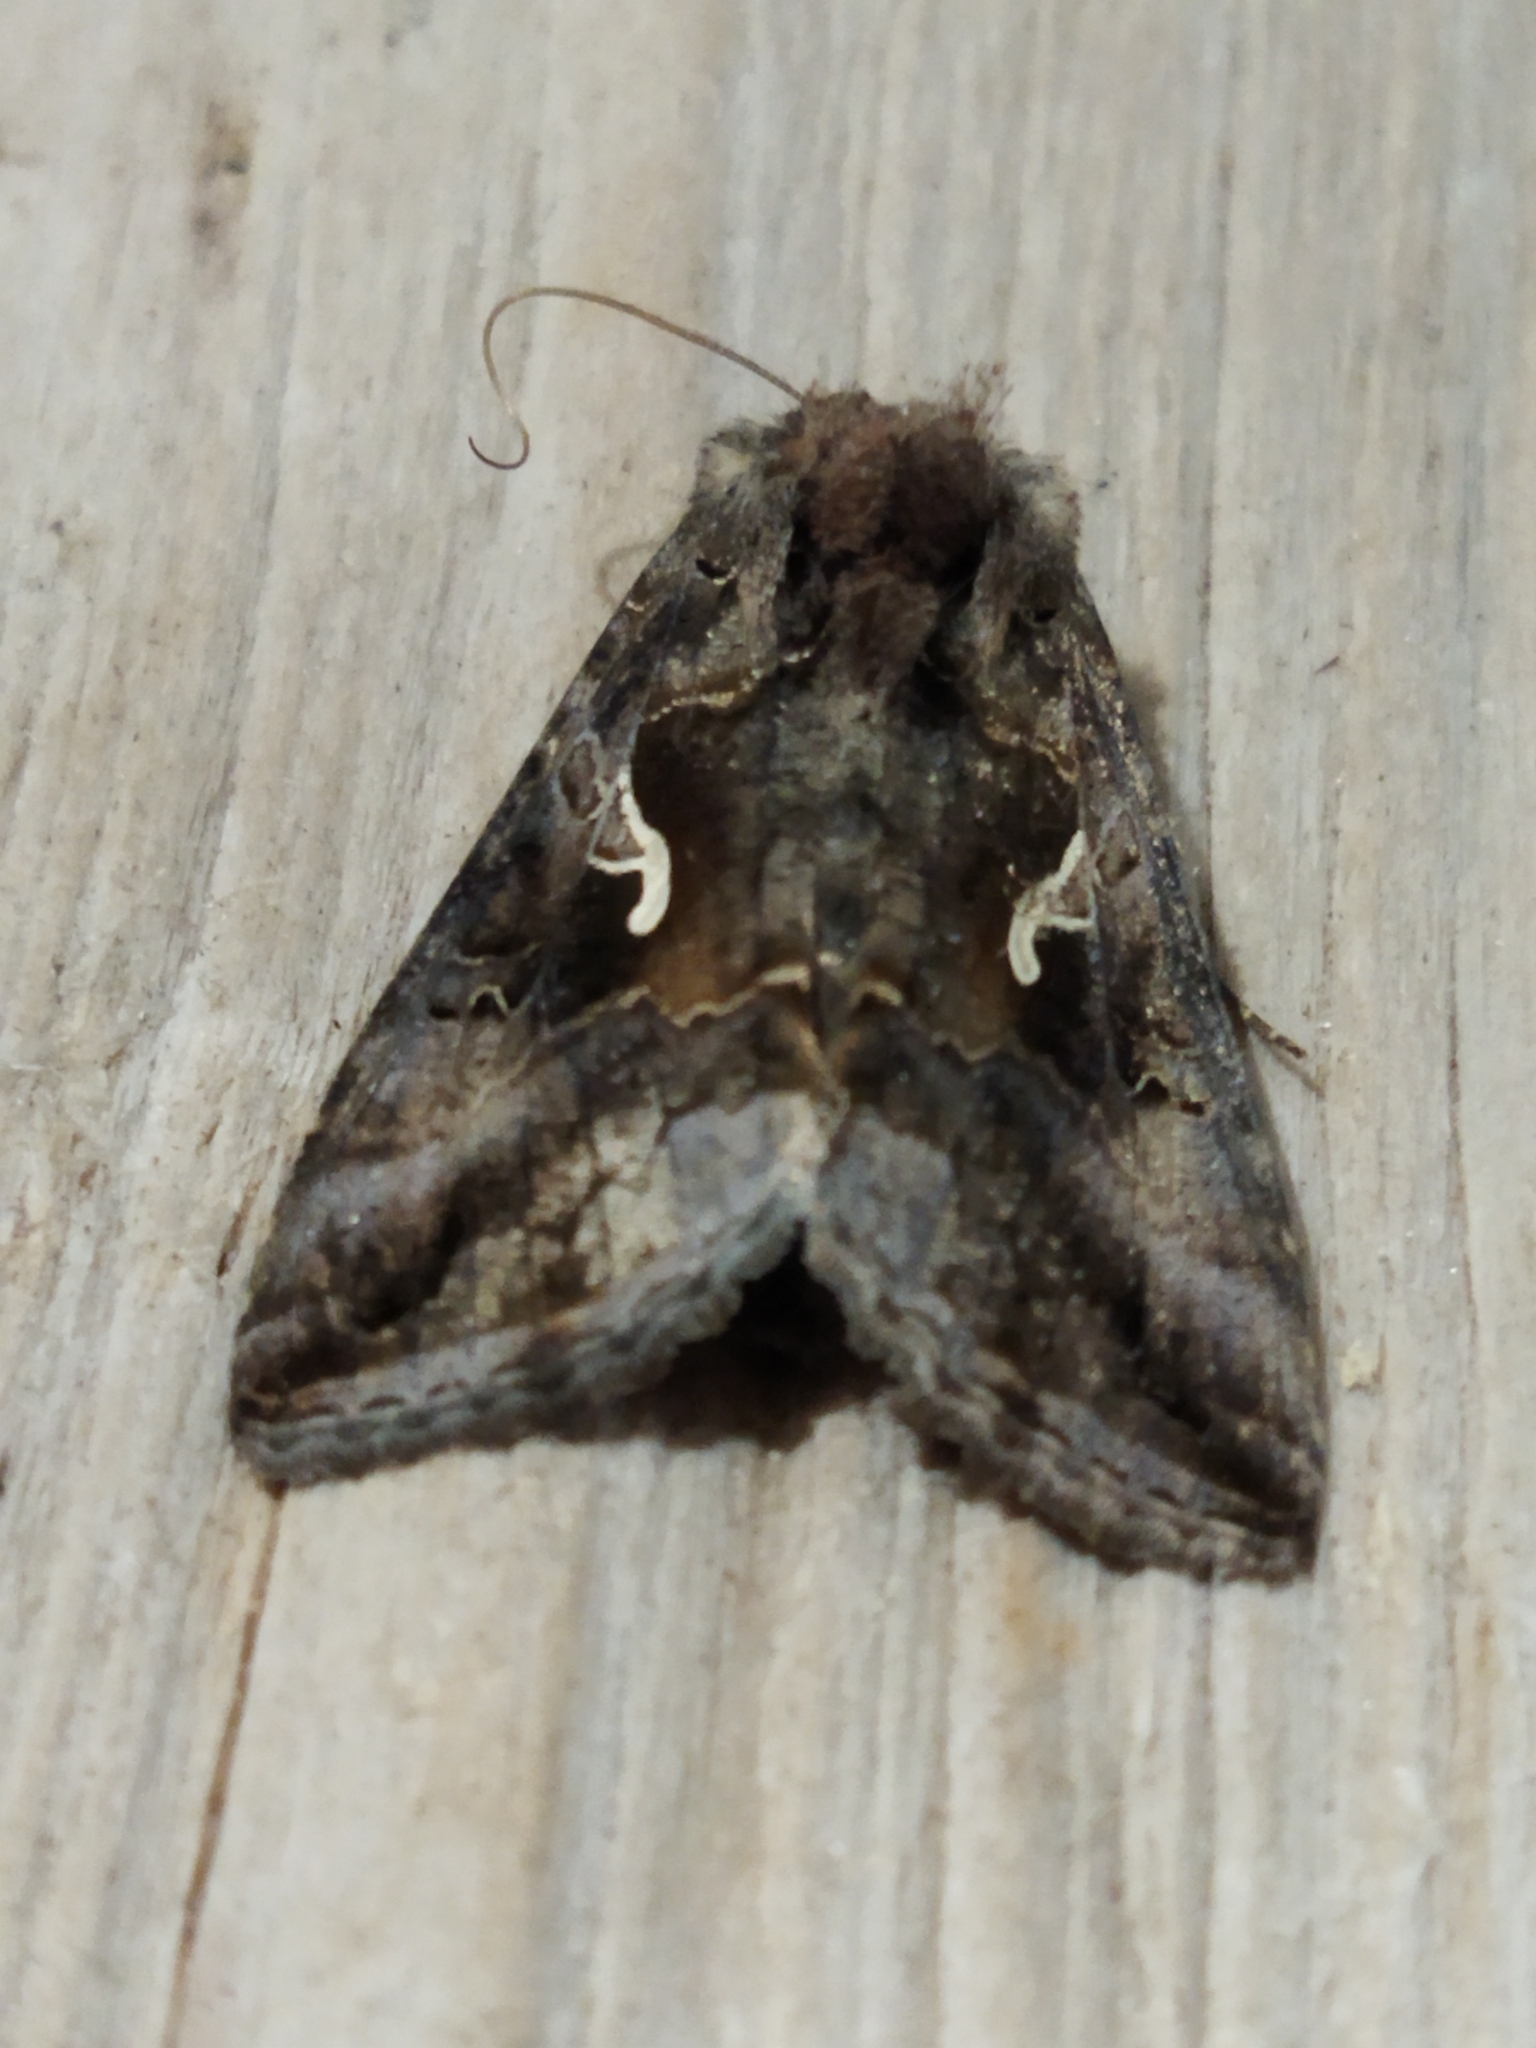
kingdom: Animalia
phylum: Arthropoda
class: Insecta
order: Lepidoptera
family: Noctuidae
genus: Autographa
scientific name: Autographa gamma
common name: Silver y
